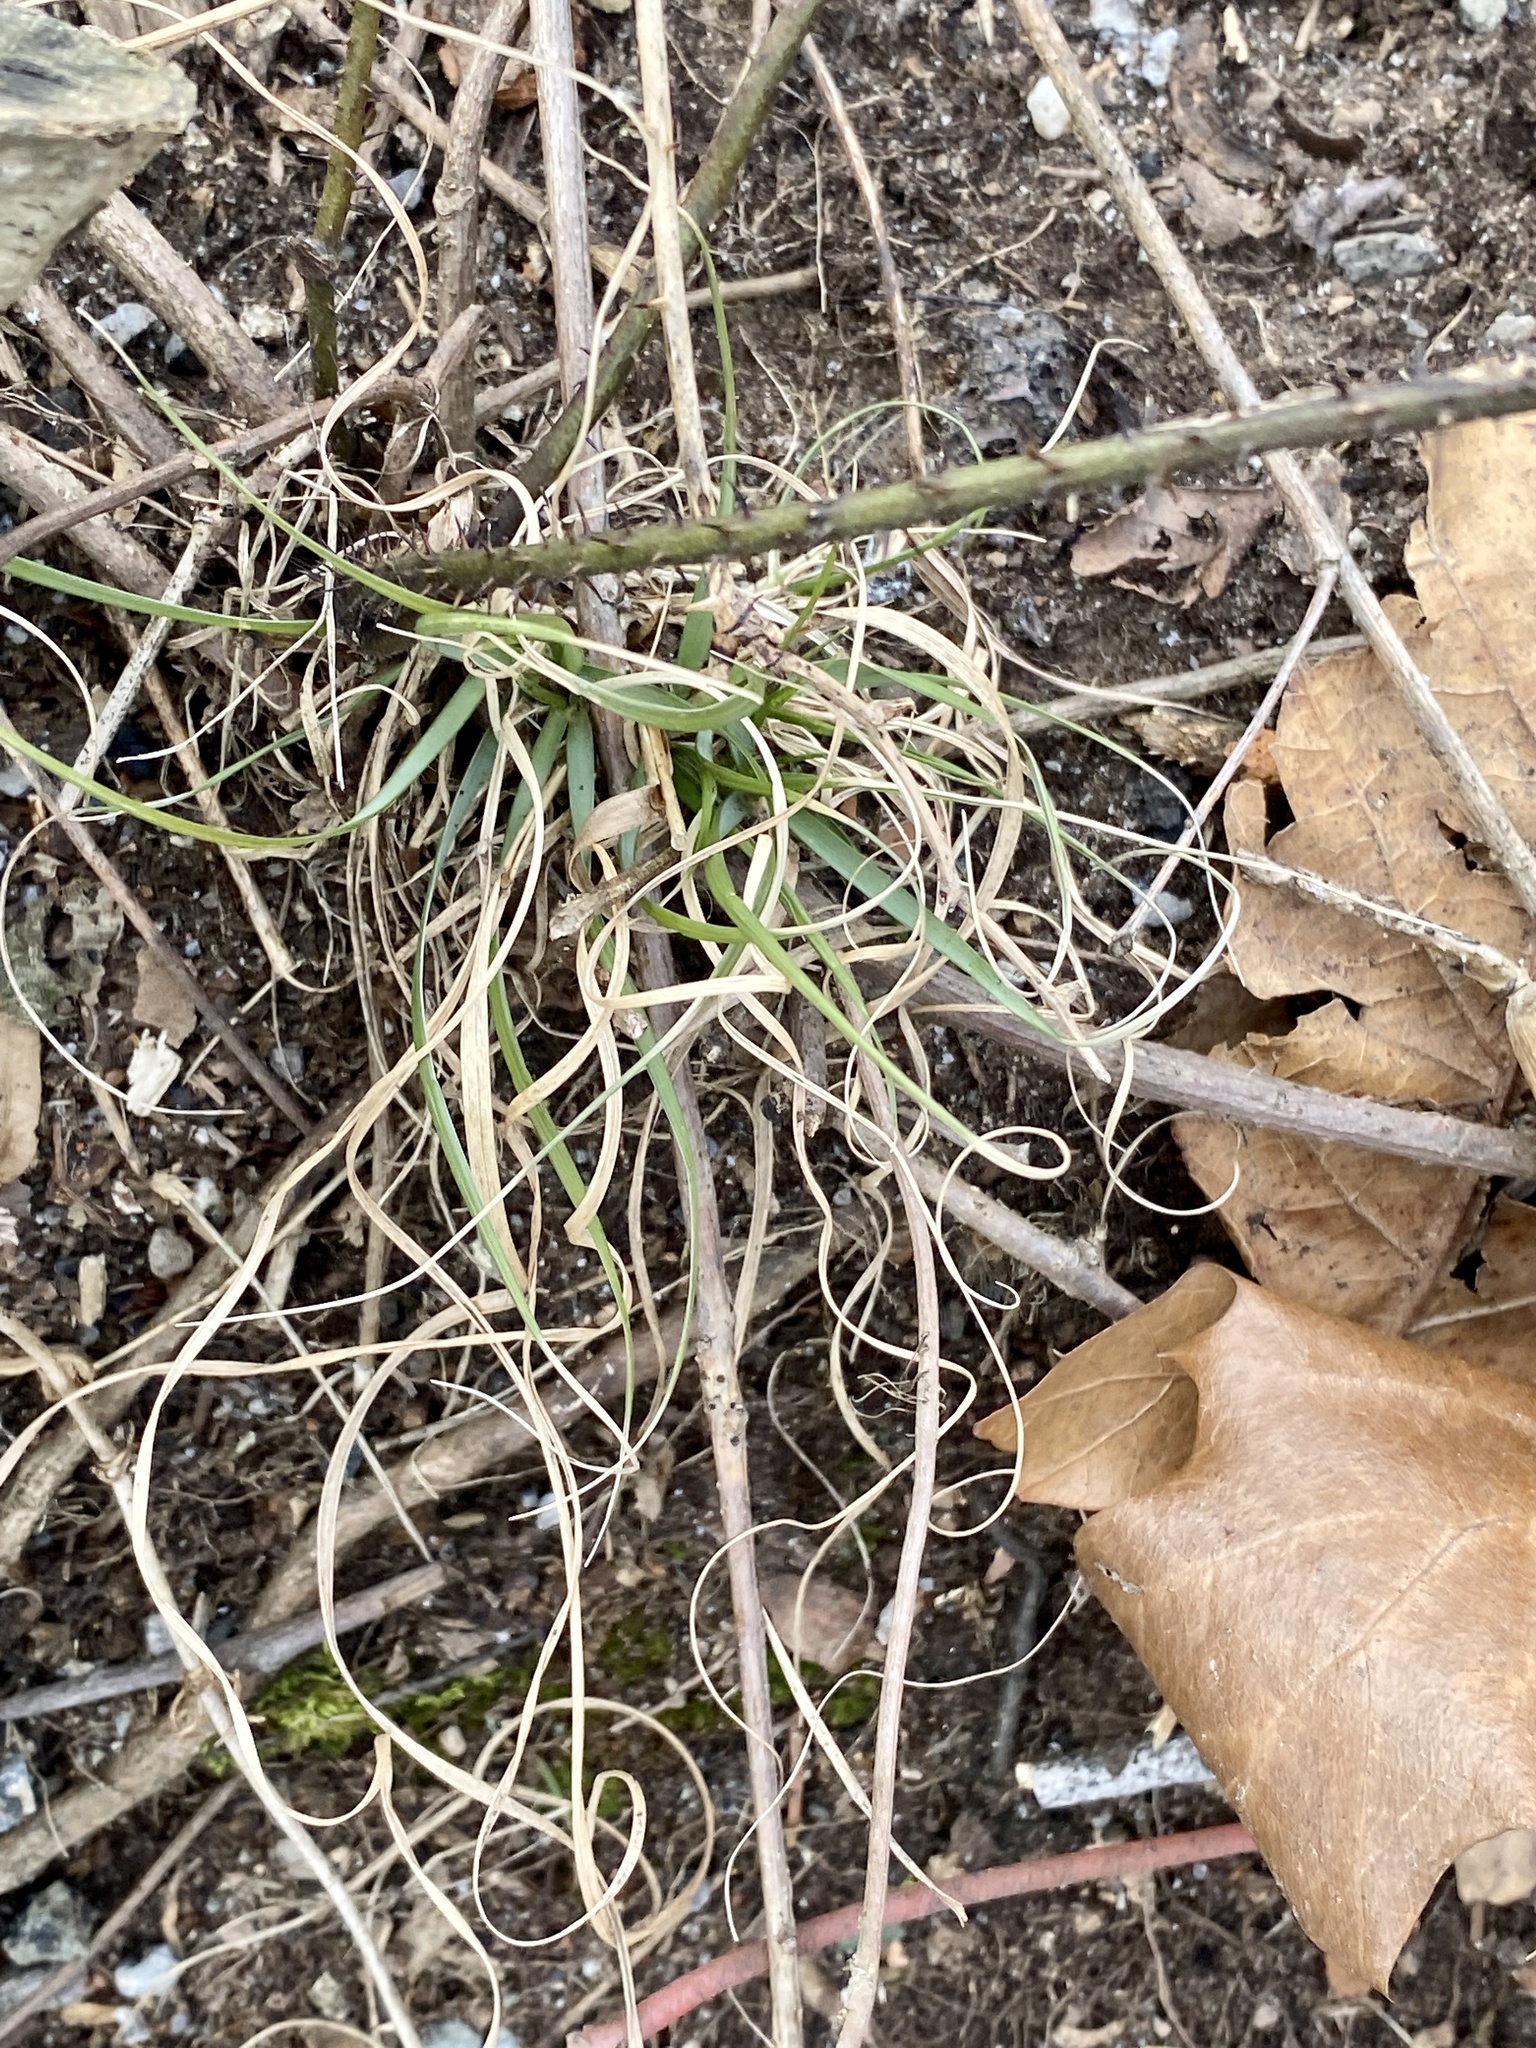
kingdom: Plantae
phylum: Tracheophyta
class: Liliopsida
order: Poales
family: Poaceae
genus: Danthonia
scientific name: Danthonia spicata
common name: Common wild oatgrass
